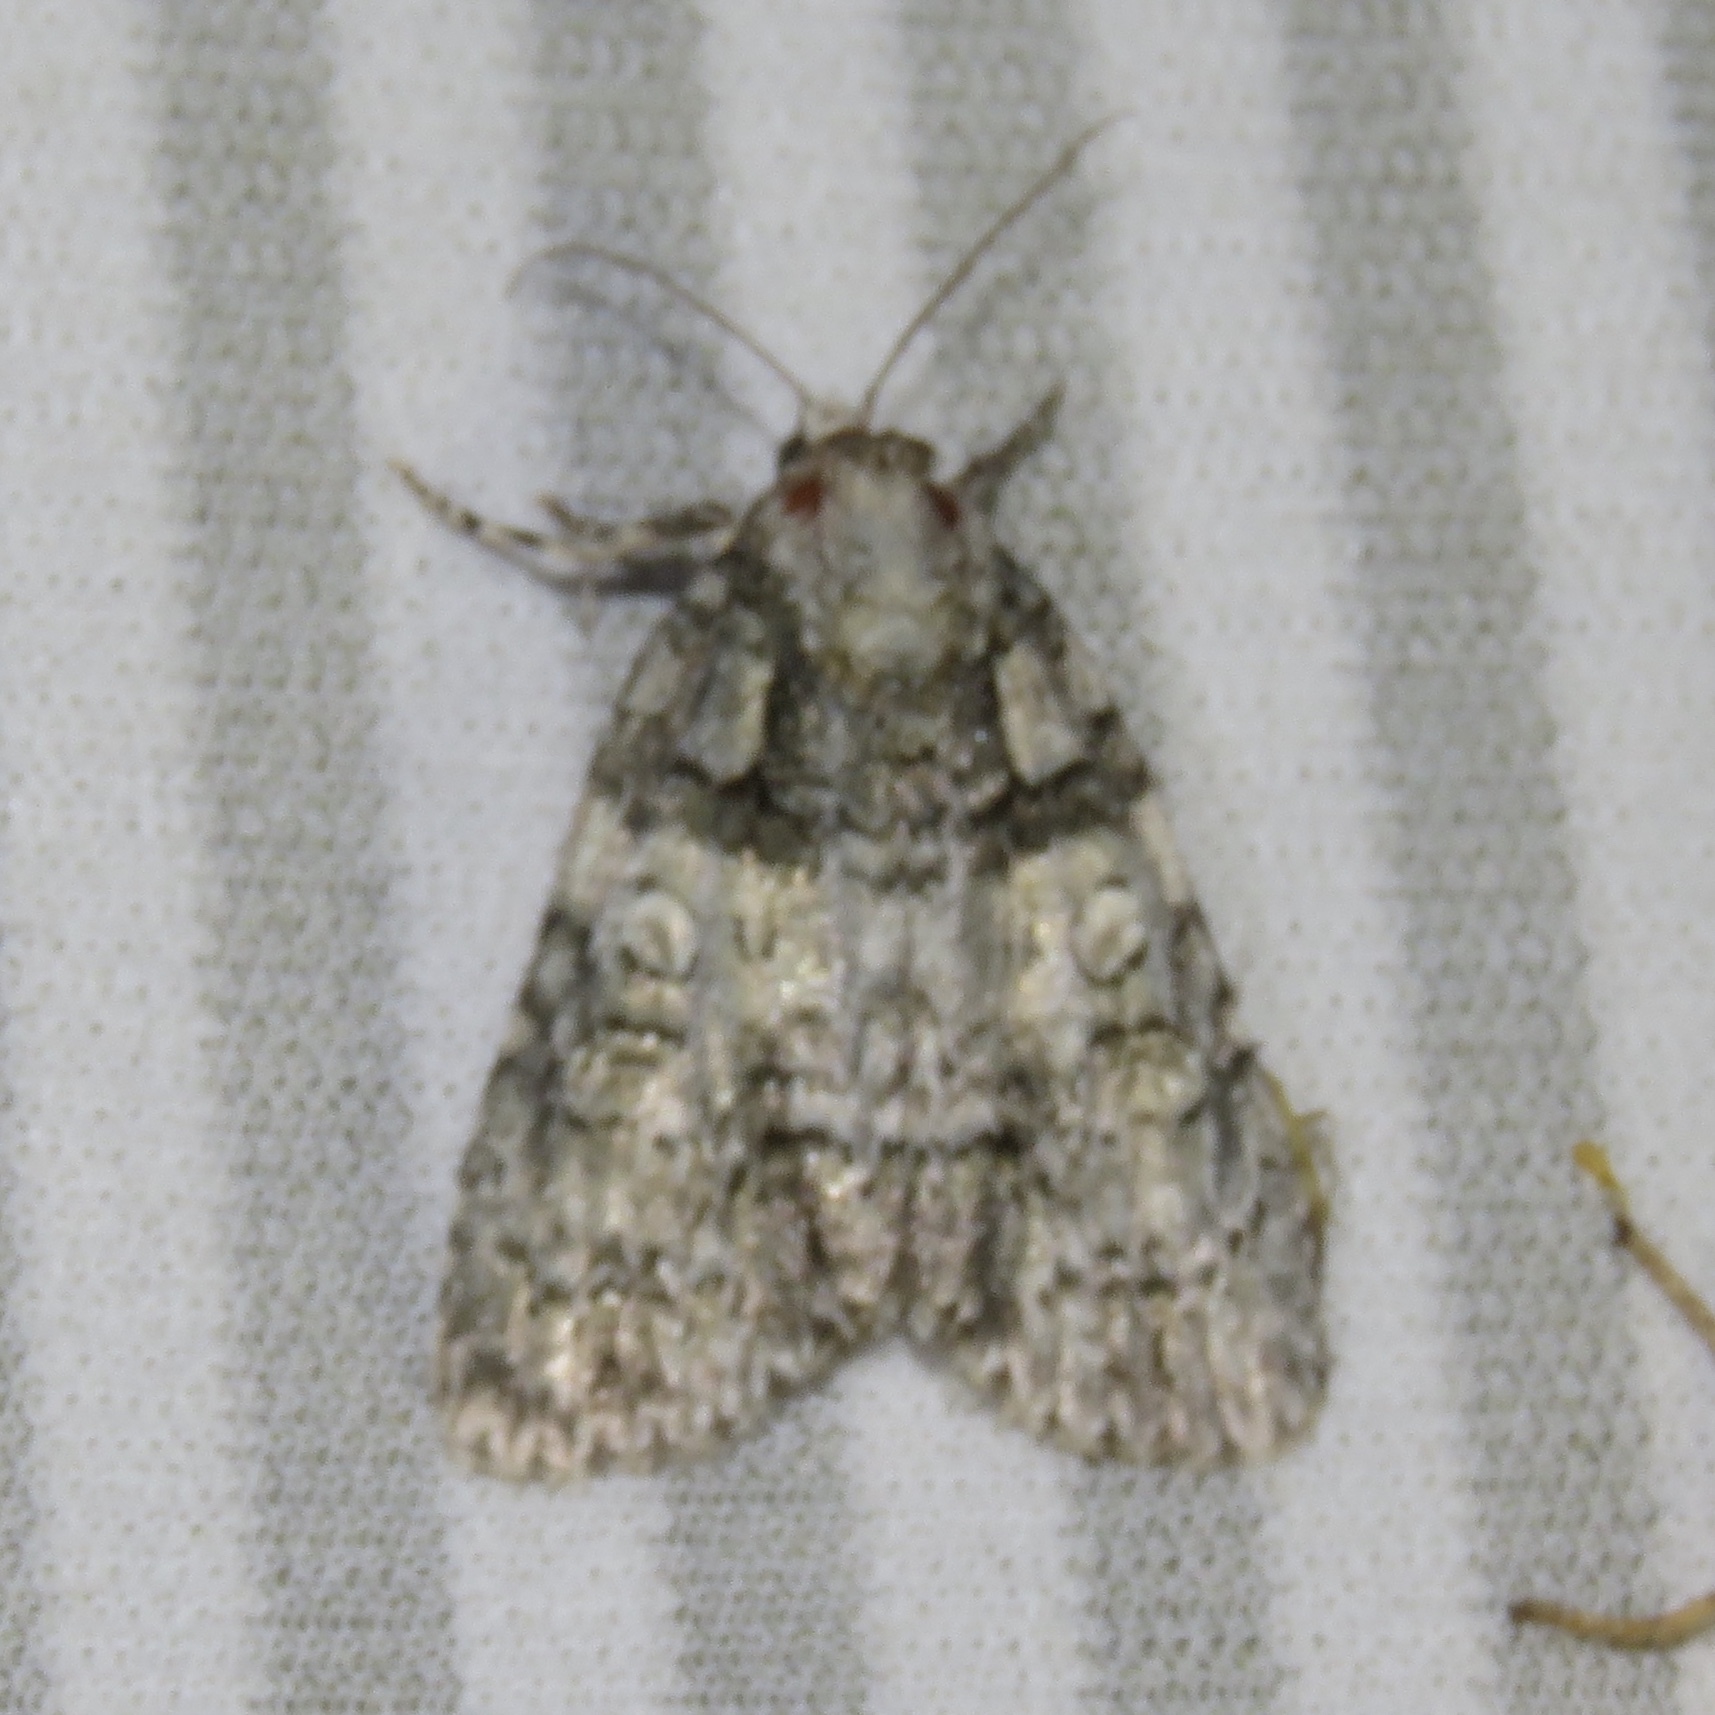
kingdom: Animalia
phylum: Arthropoda
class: Insecta
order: Lepidoptera
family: Noctuidae
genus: Acronicta
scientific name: Acronicta increta
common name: Eclipsed oak dagger
